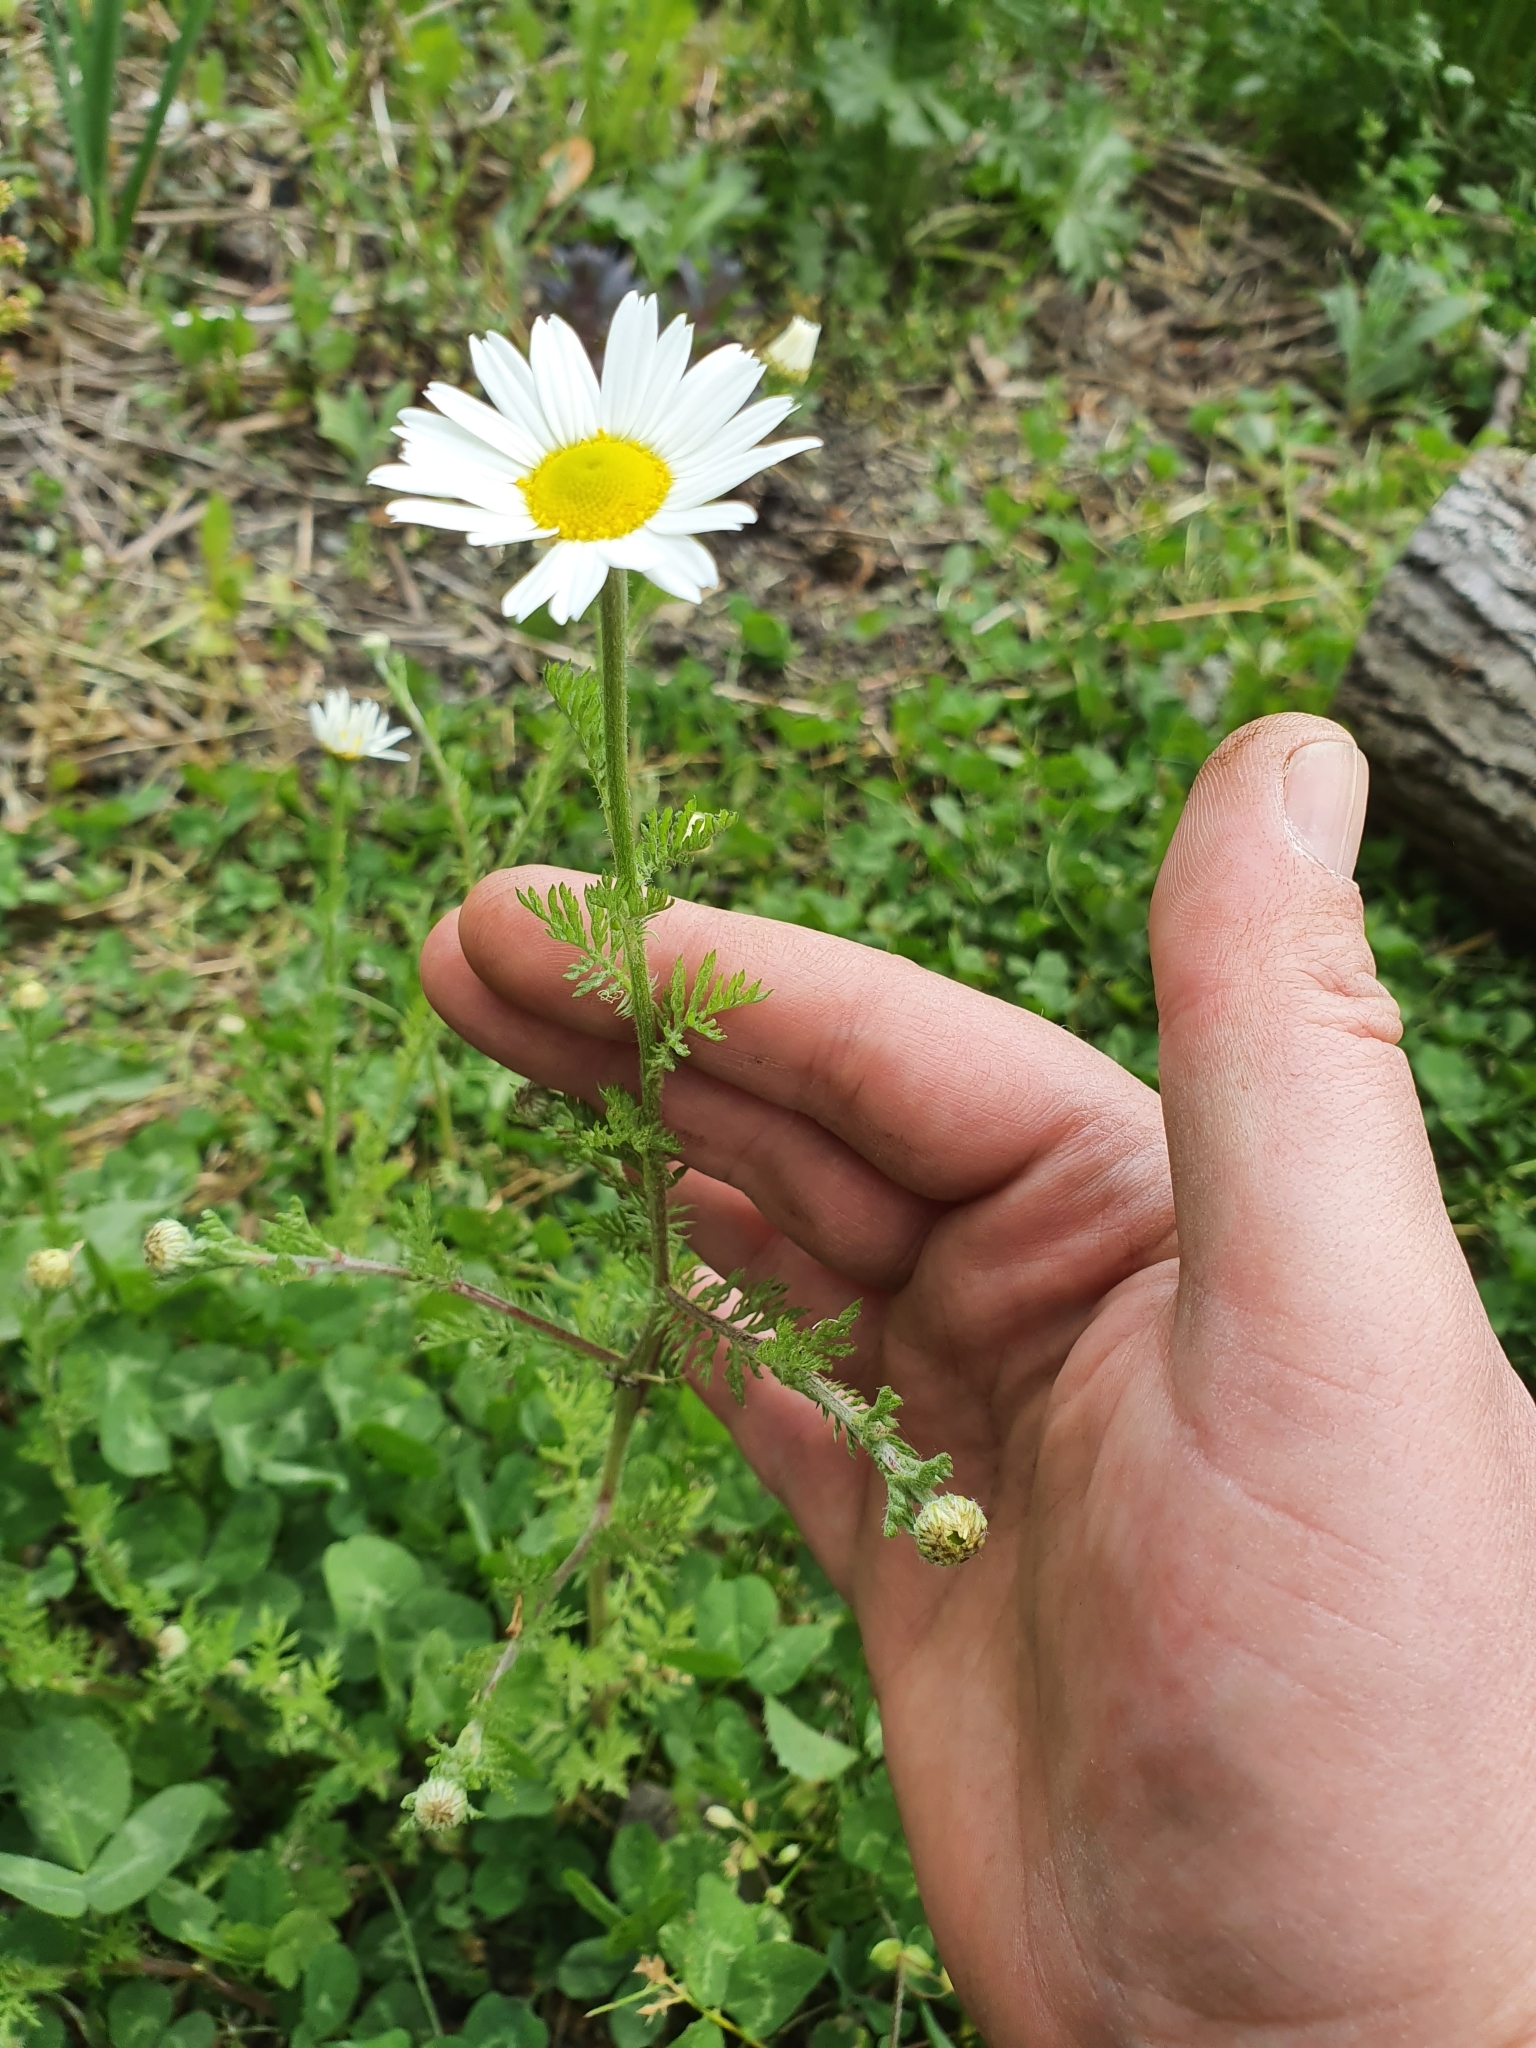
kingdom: Plantae
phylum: Tracheophyta
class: Magnoliopsida
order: Asterales
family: Asteraceae
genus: Anthemis
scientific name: Anthemis arvensis
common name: Corn chamomile
